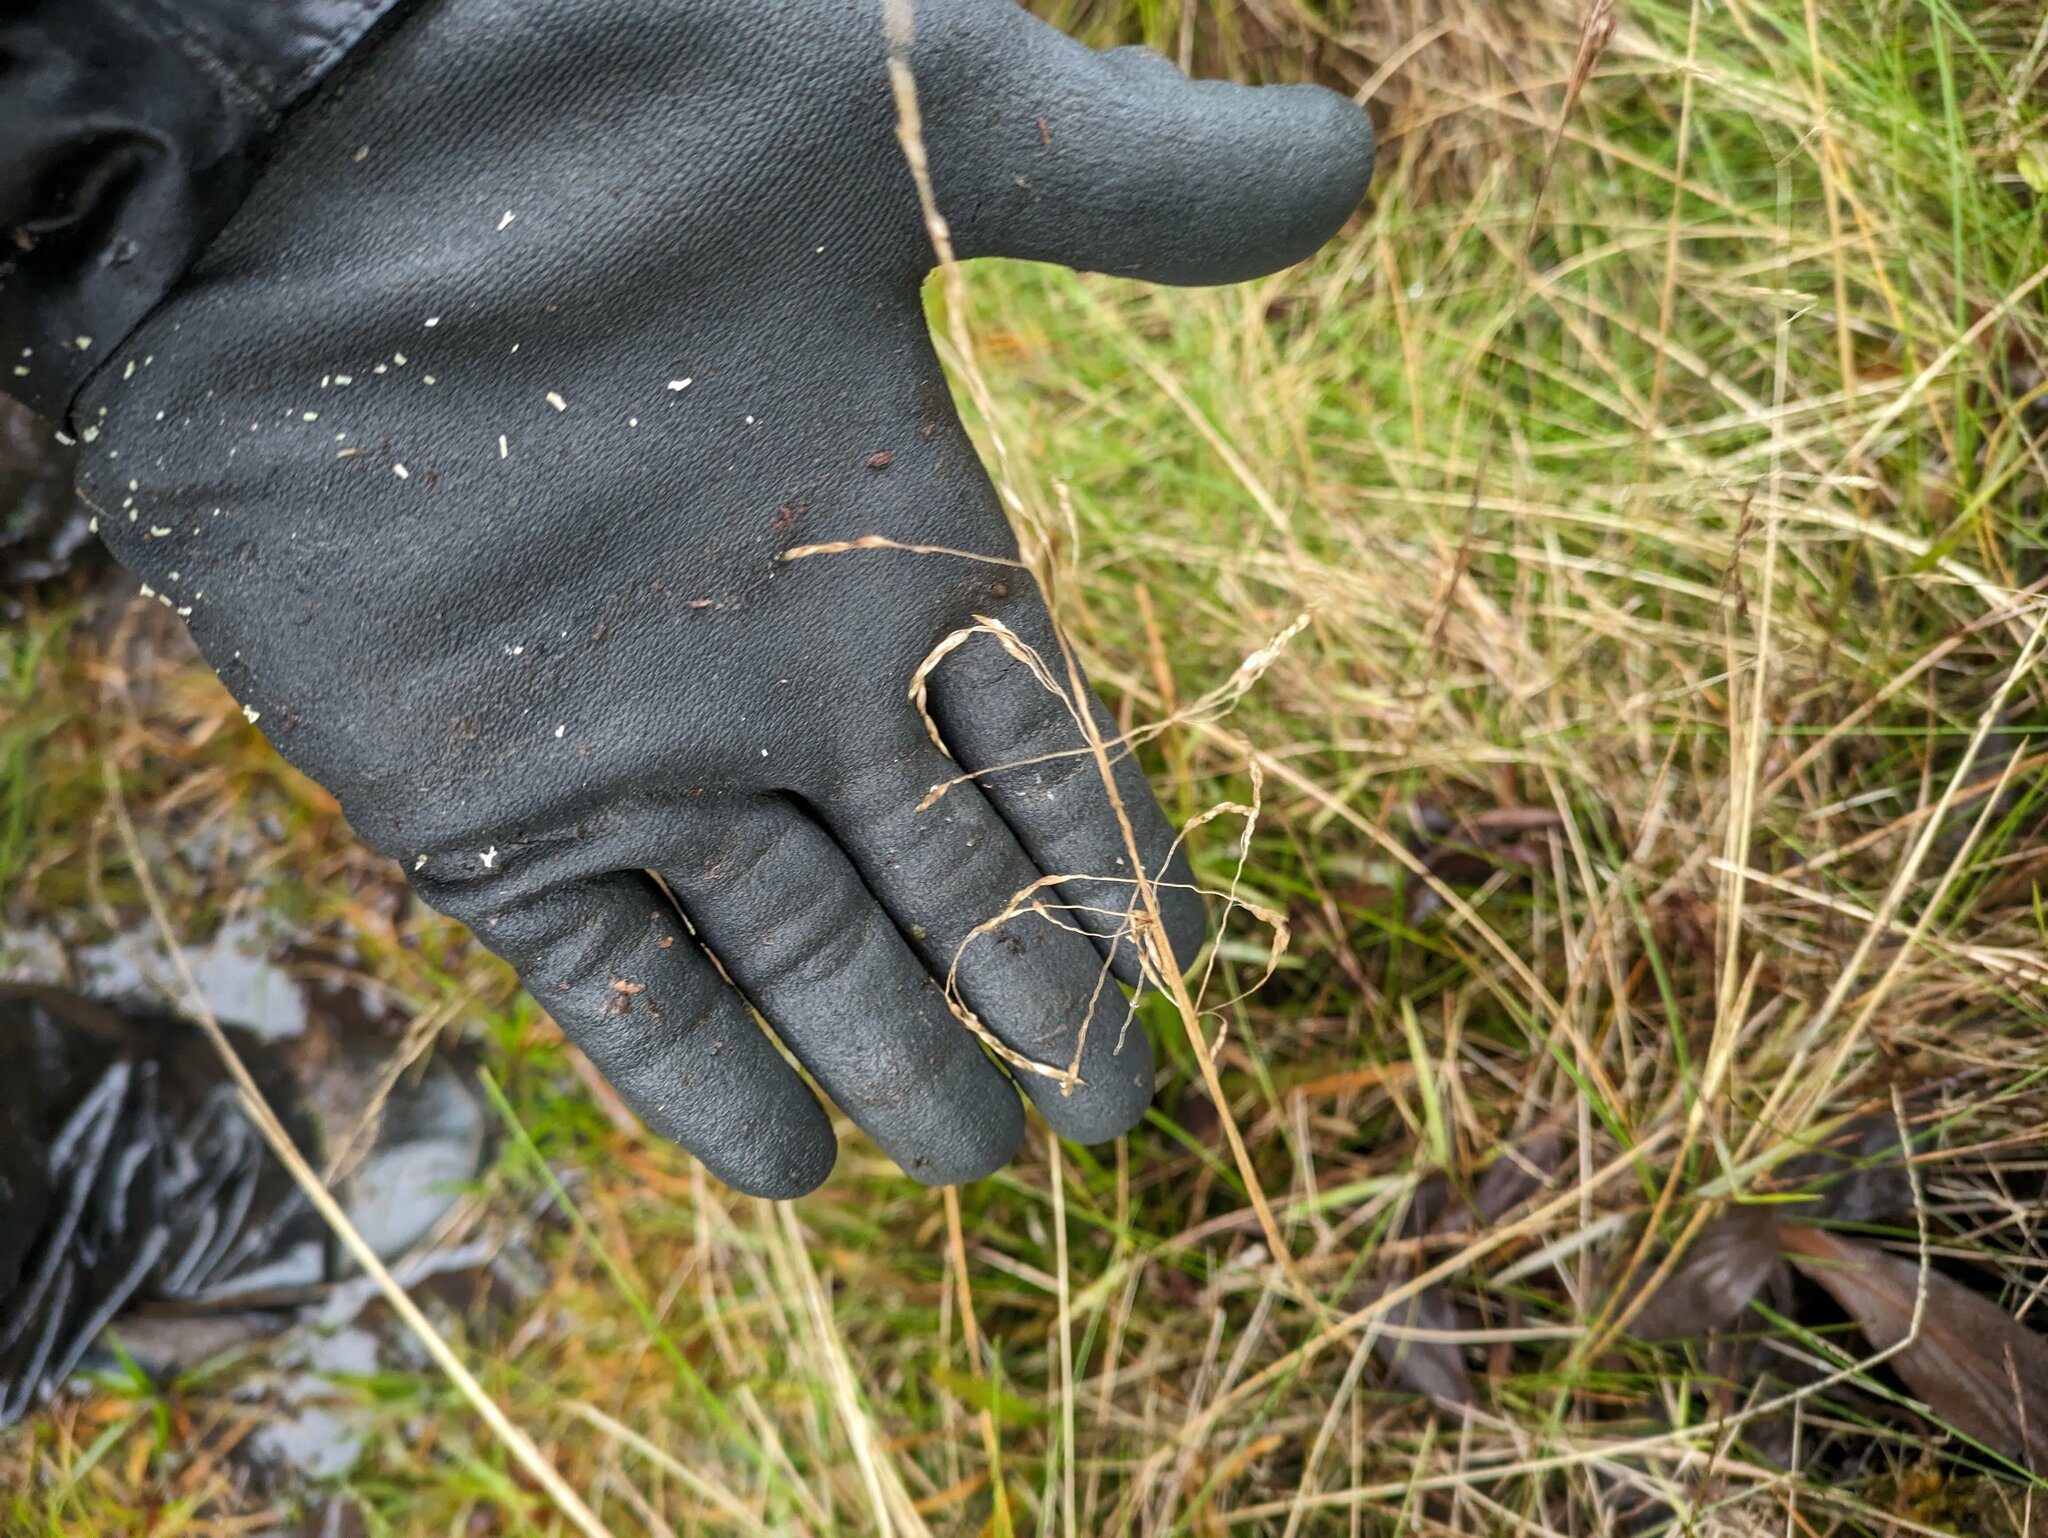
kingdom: Plantae
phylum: Tracheophyta
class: Liliopsida
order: Poales
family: Poaceae
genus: Deschampsia
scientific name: Deschampsia nubigena
